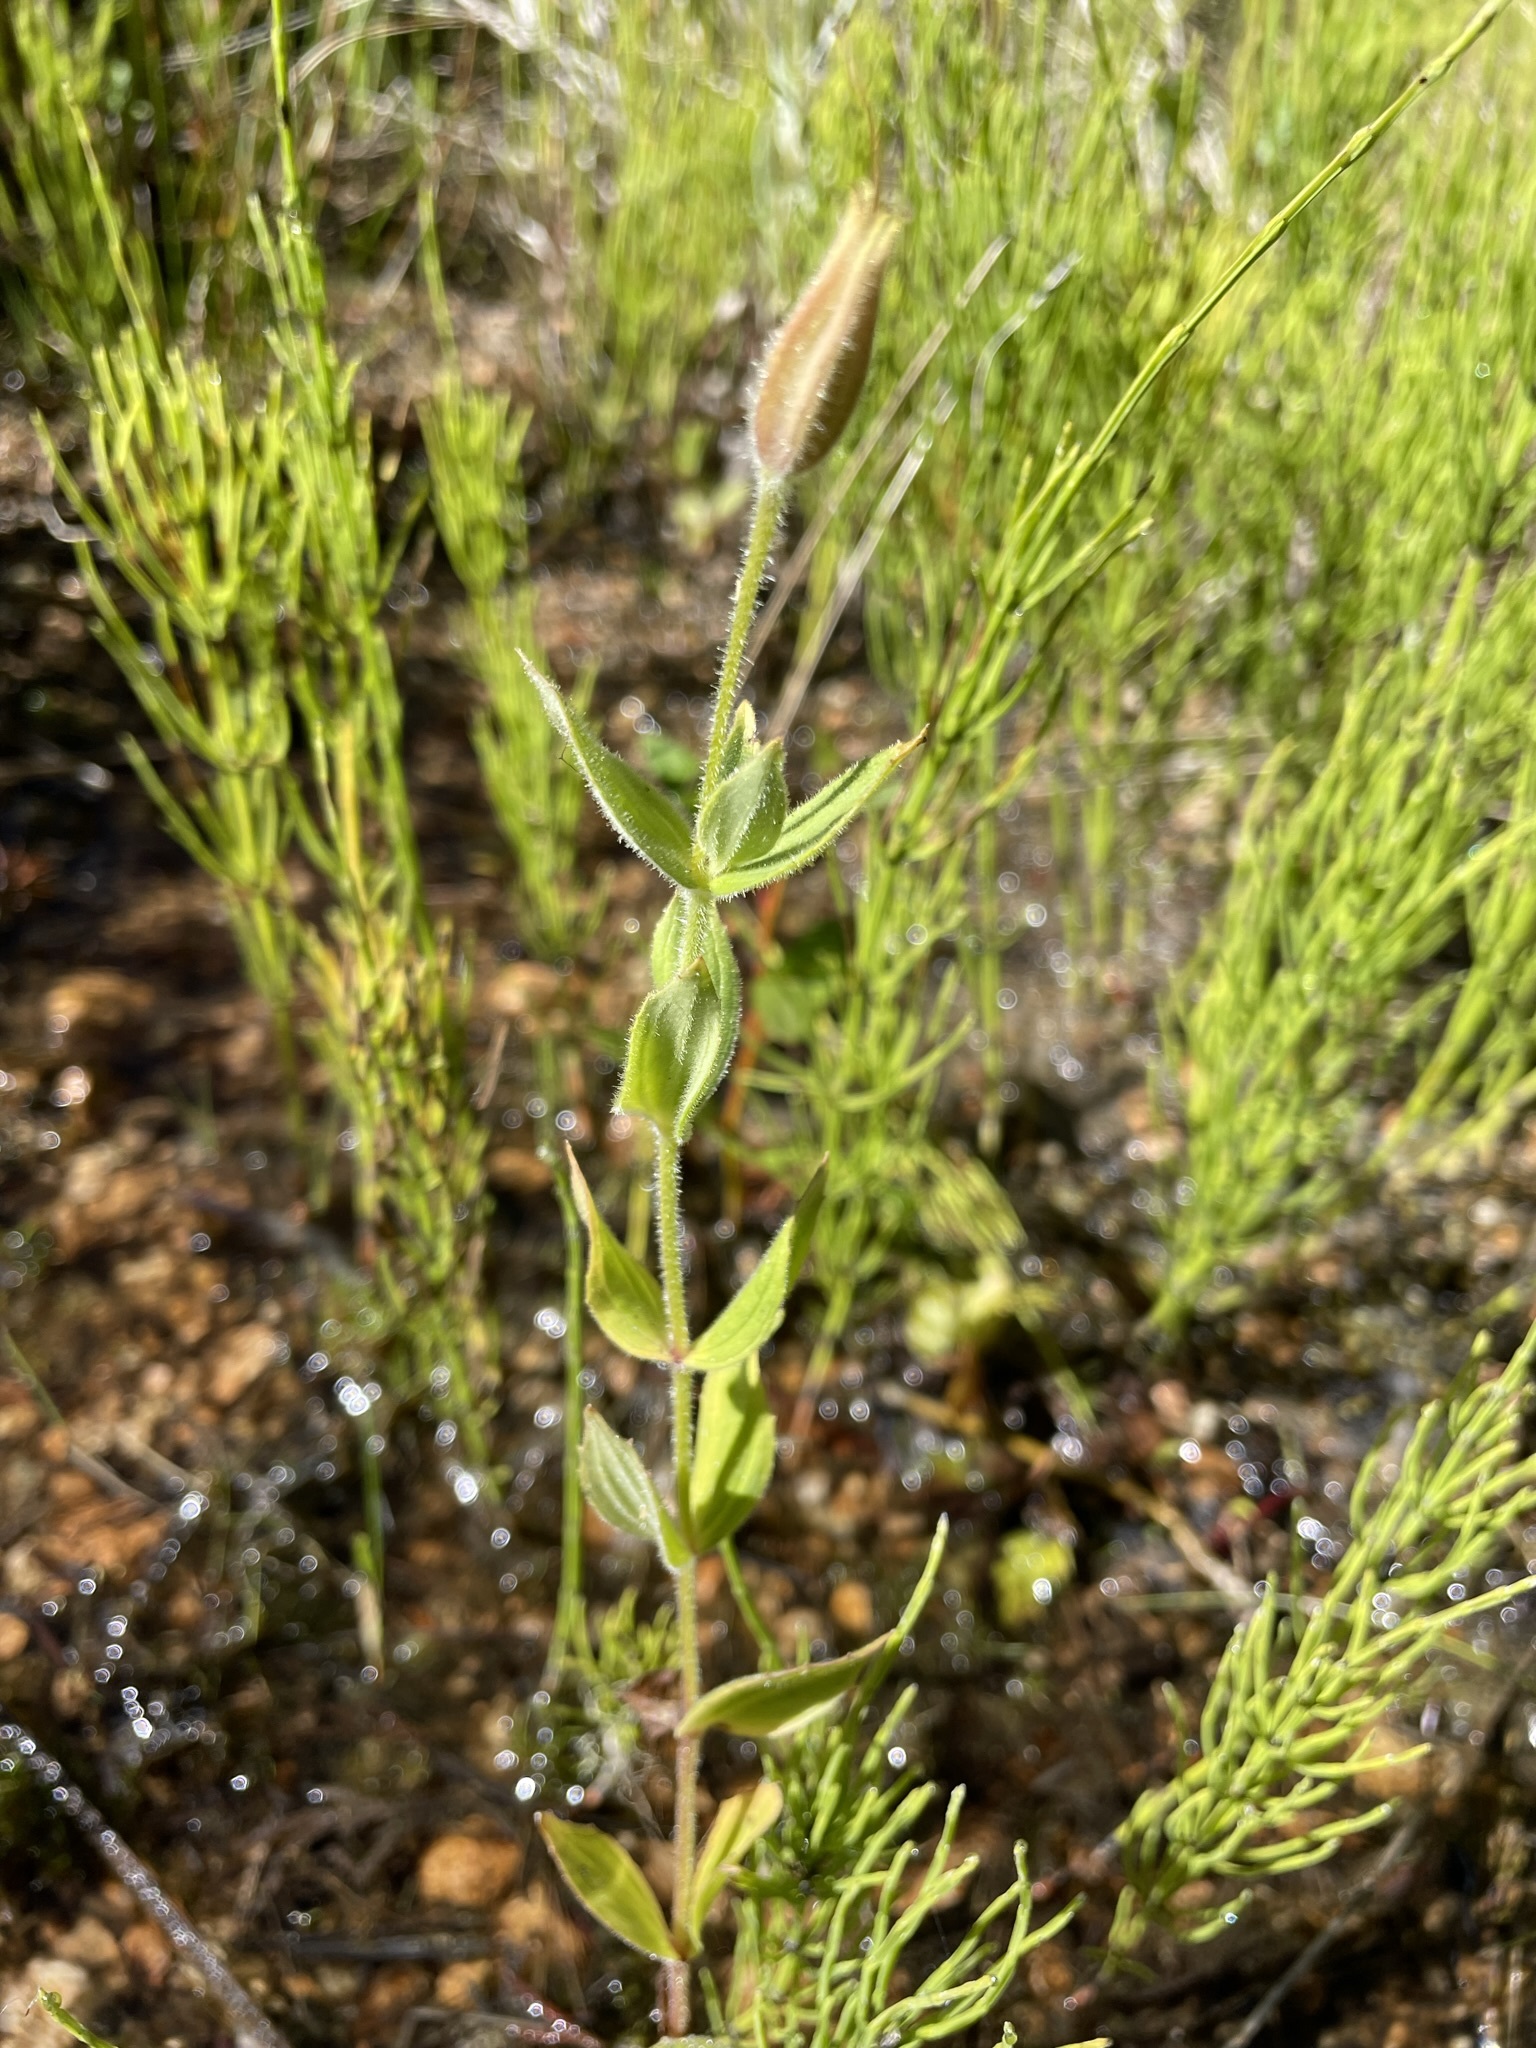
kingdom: Plantae
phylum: Tracheophyta
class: Magnoliopsida
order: Lamiales
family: Phrymaceae
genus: Erythranthe
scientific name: Erythranthe lewisii
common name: Lewis's monkey-flower
